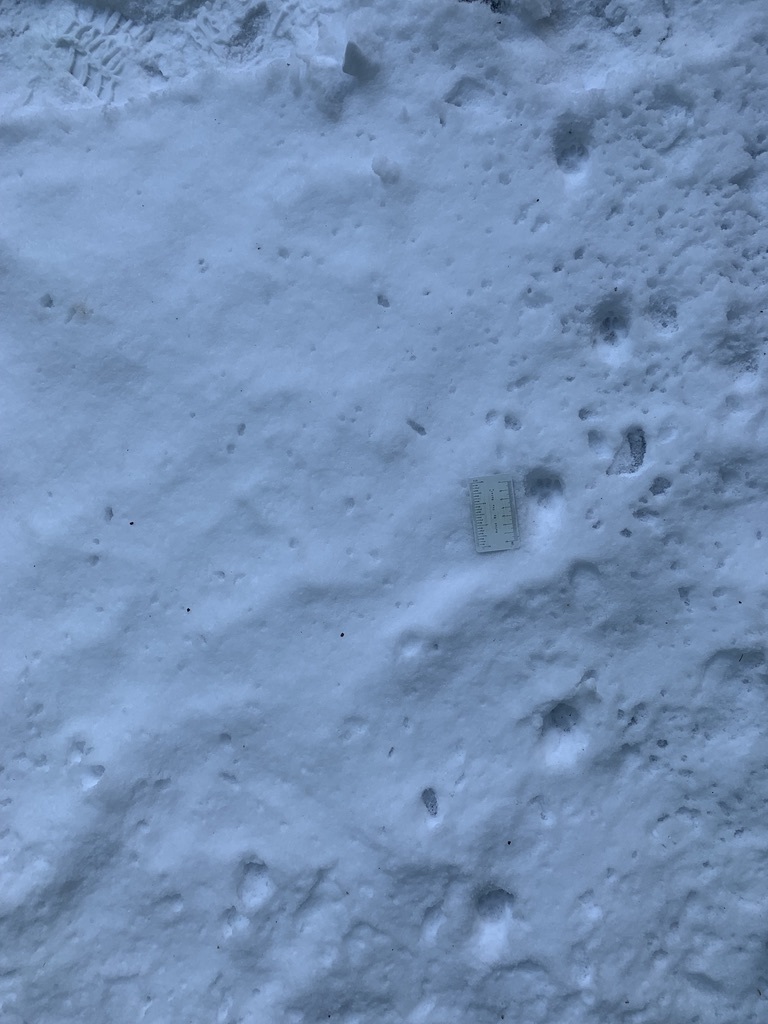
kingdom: Animalia
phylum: Chordata
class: Mammalia
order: Carnivora
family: Felidae
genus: Felis
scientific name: Felis catus
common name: Domestic cat
